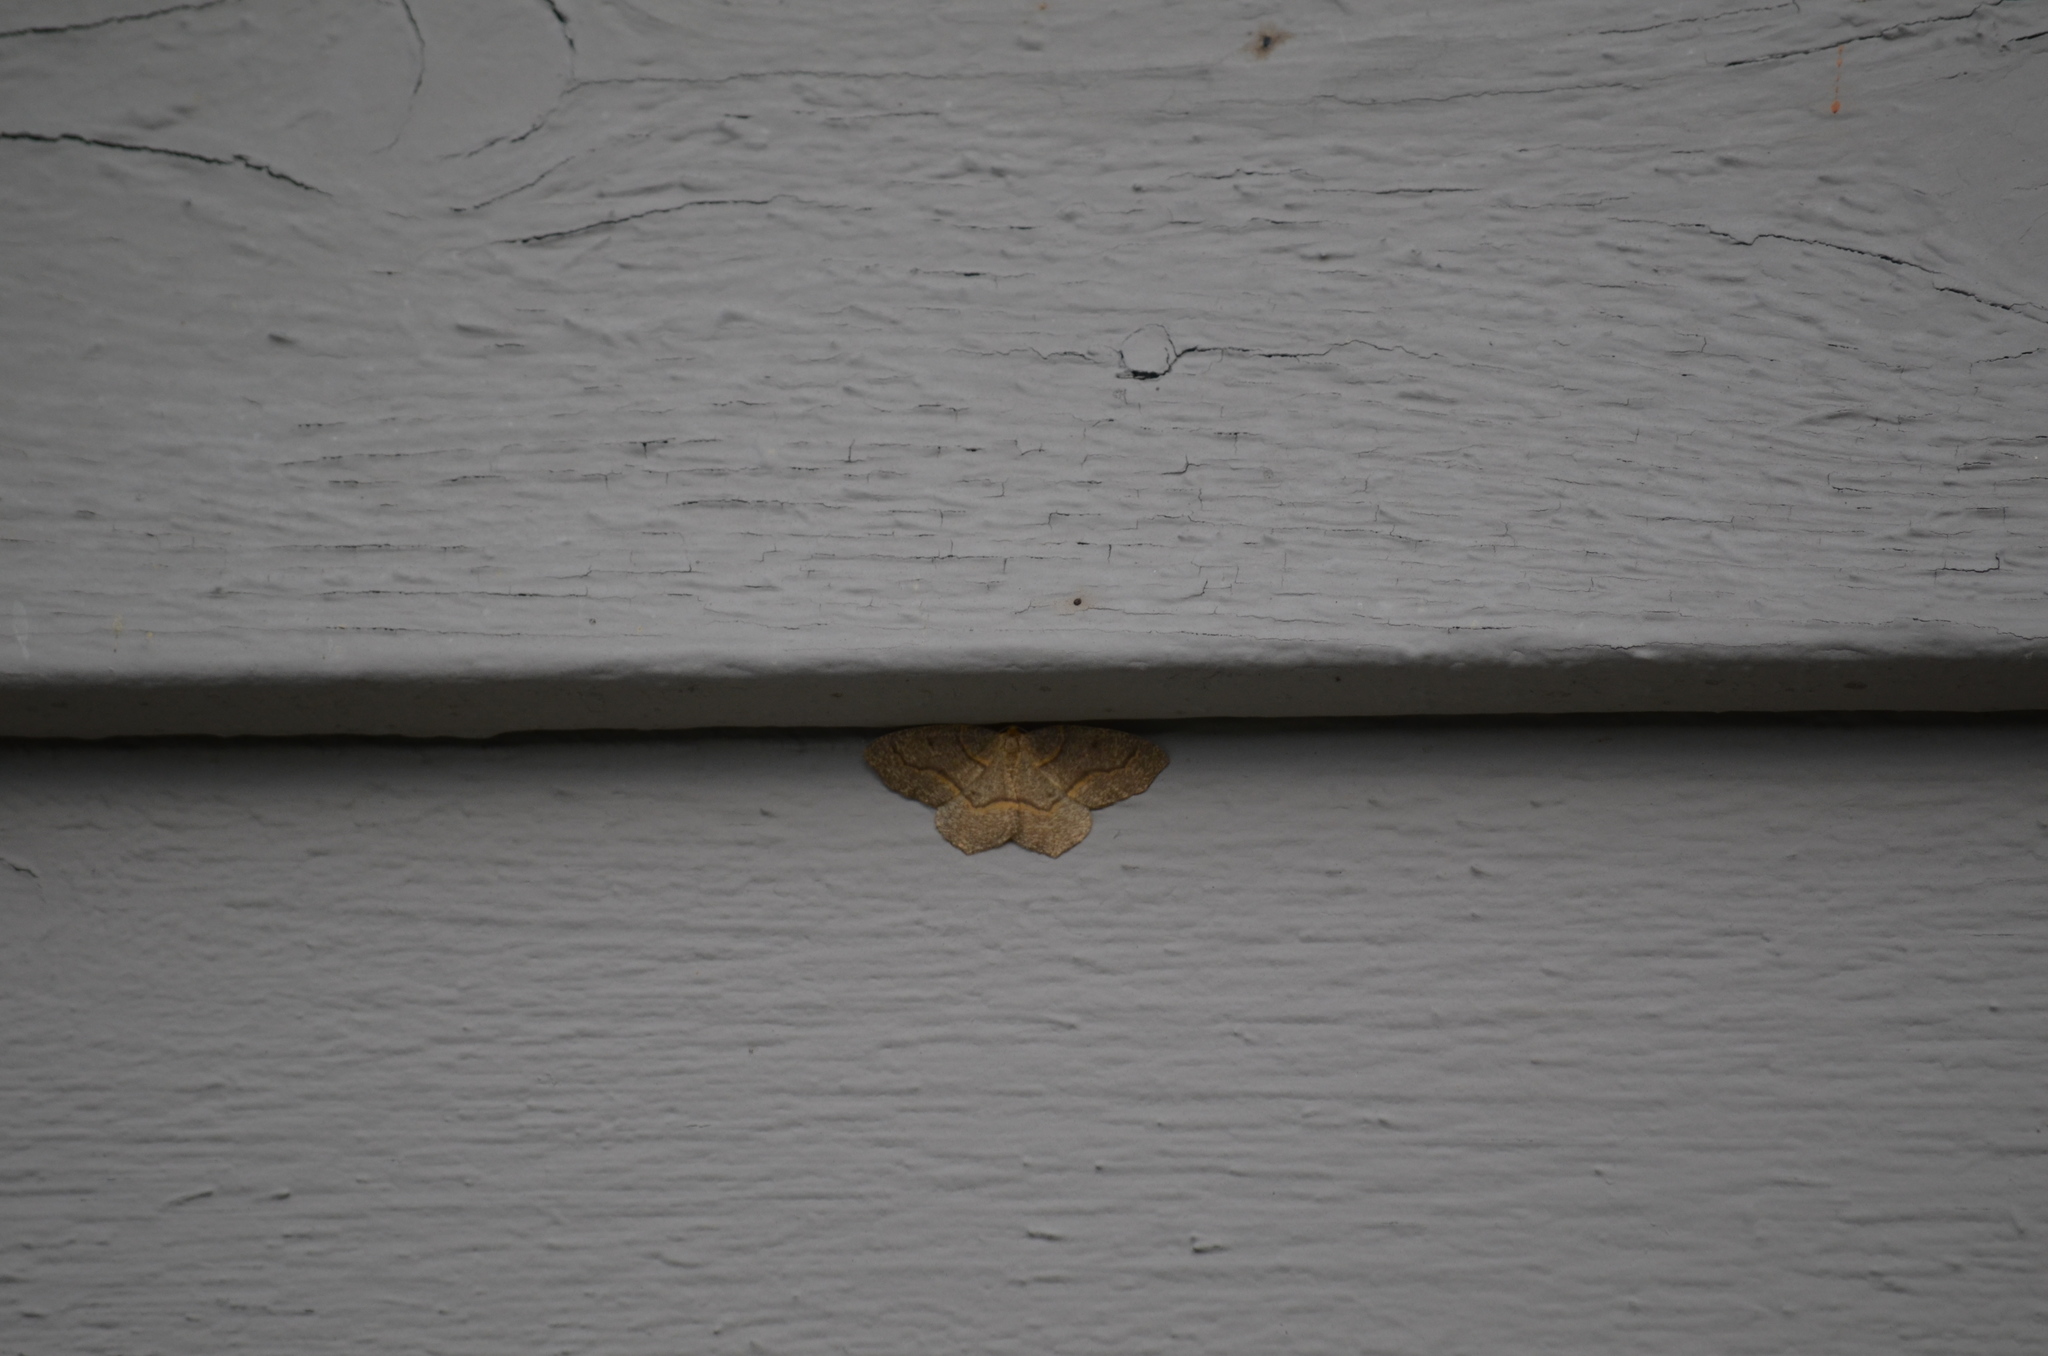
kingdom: Animalia
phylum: Arthropoda
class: Insecta
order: Lepidoptera
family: Geometridae
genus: Lambdina
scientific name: Lambdina fiscellaria
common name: Hemlock looper
